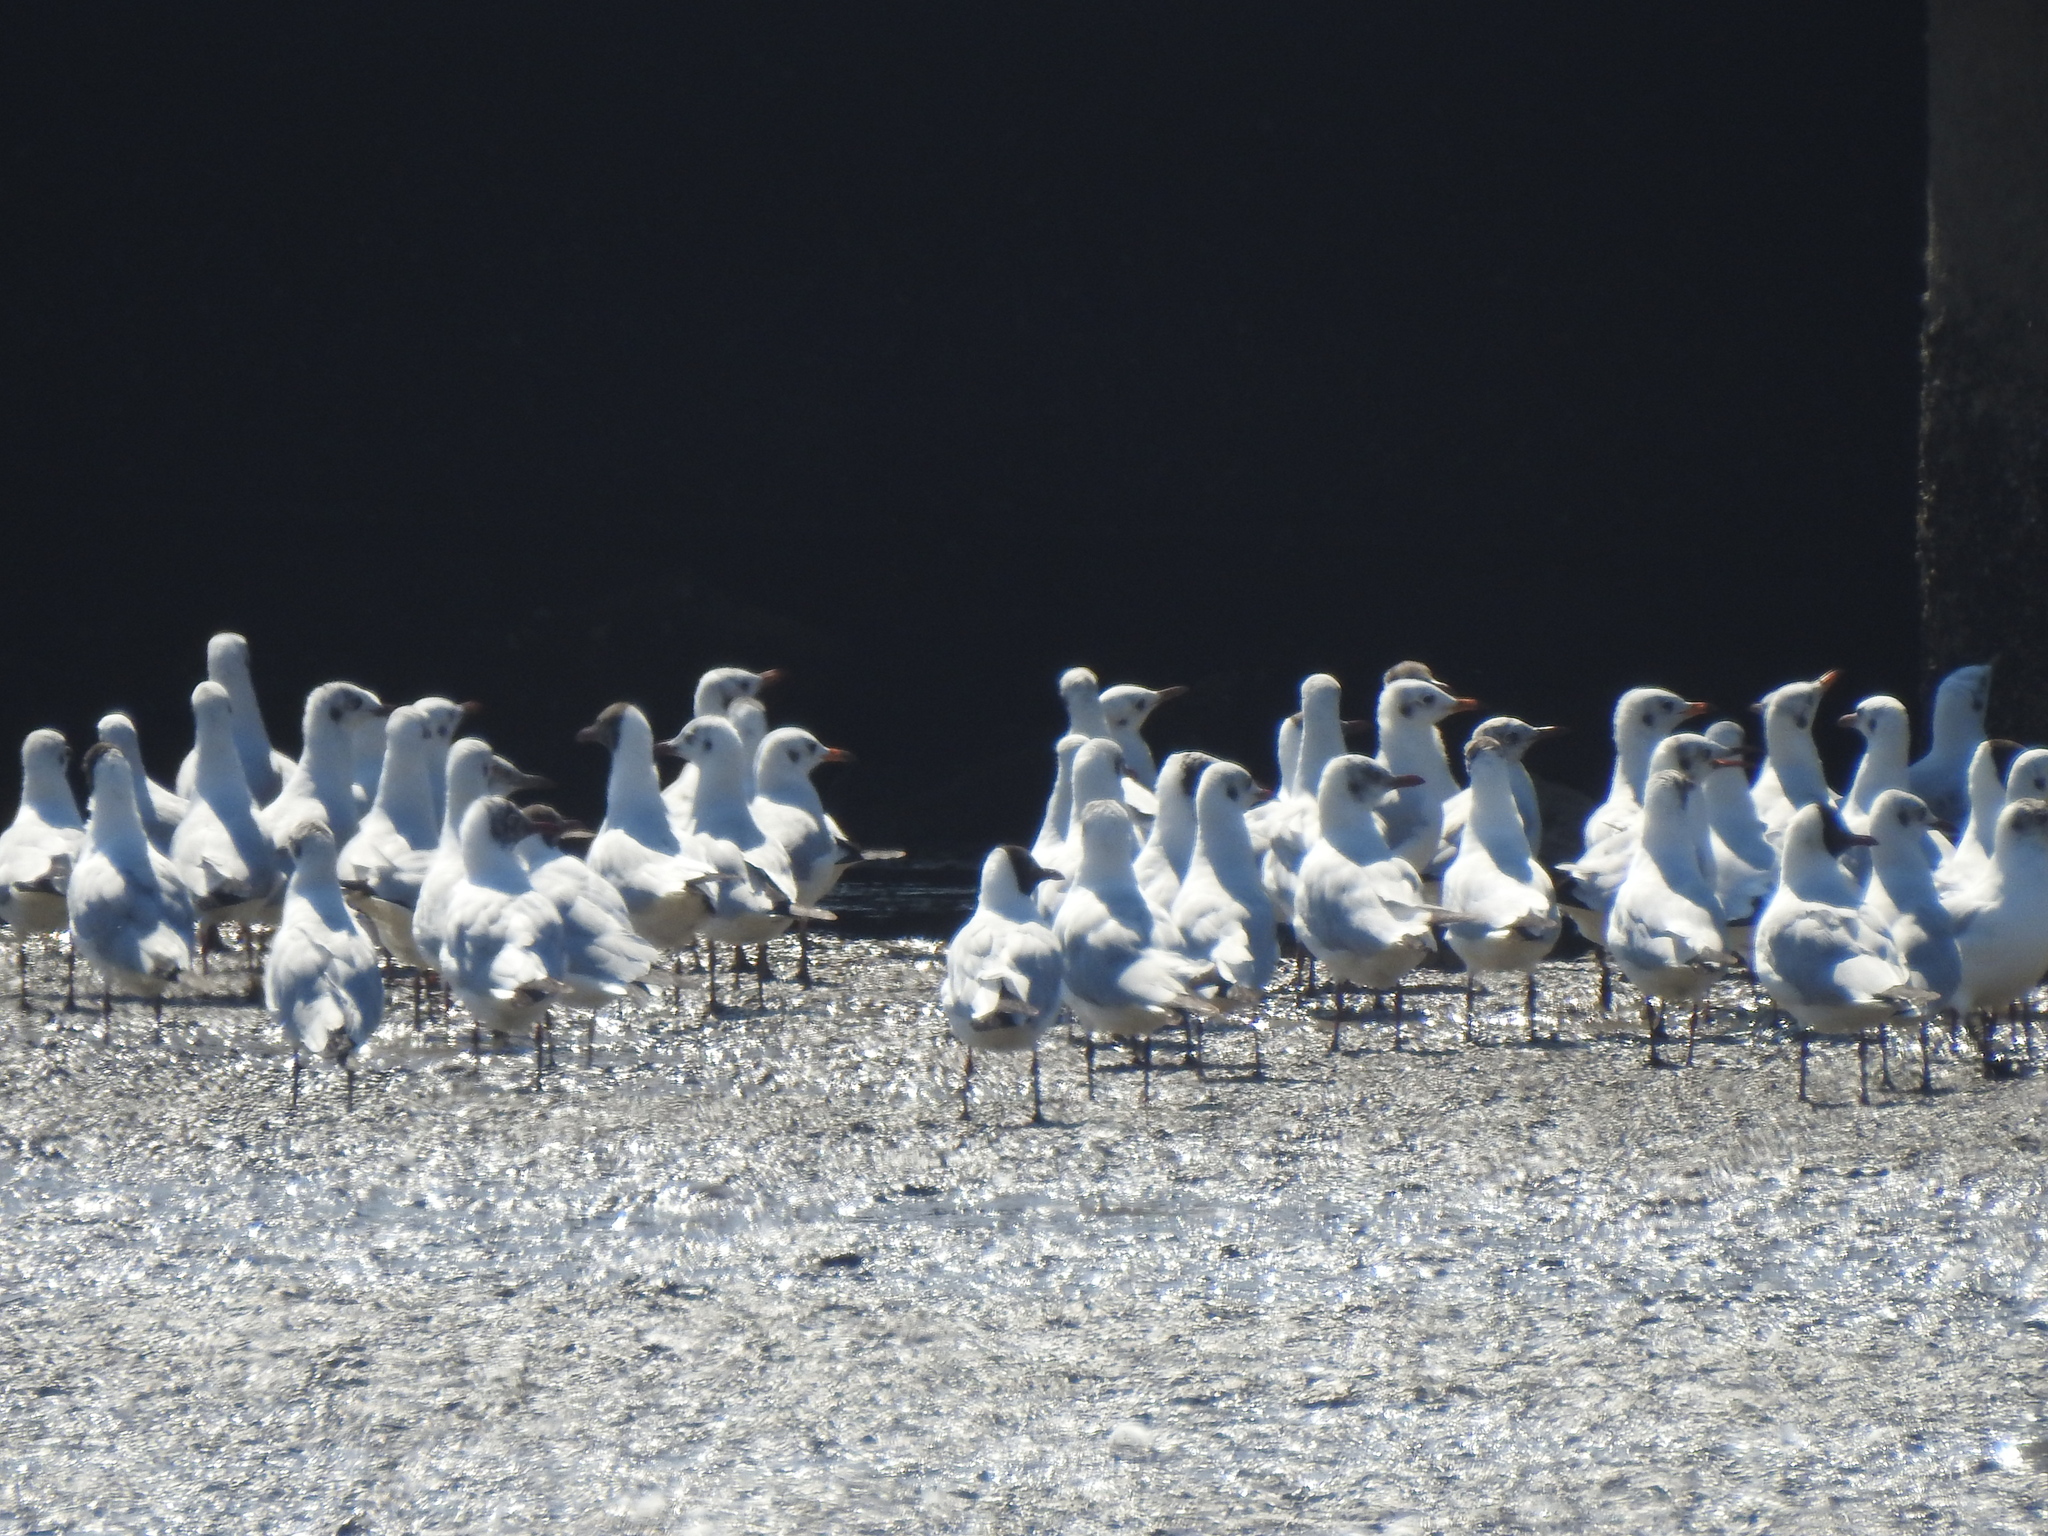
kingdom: Animalia
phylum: Chordata
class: Aves
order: Charadriiformes
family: Laridae
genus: Chroicocephalus
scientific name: Chroicocephalus brunnicephalus
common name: Brown-headed gull
